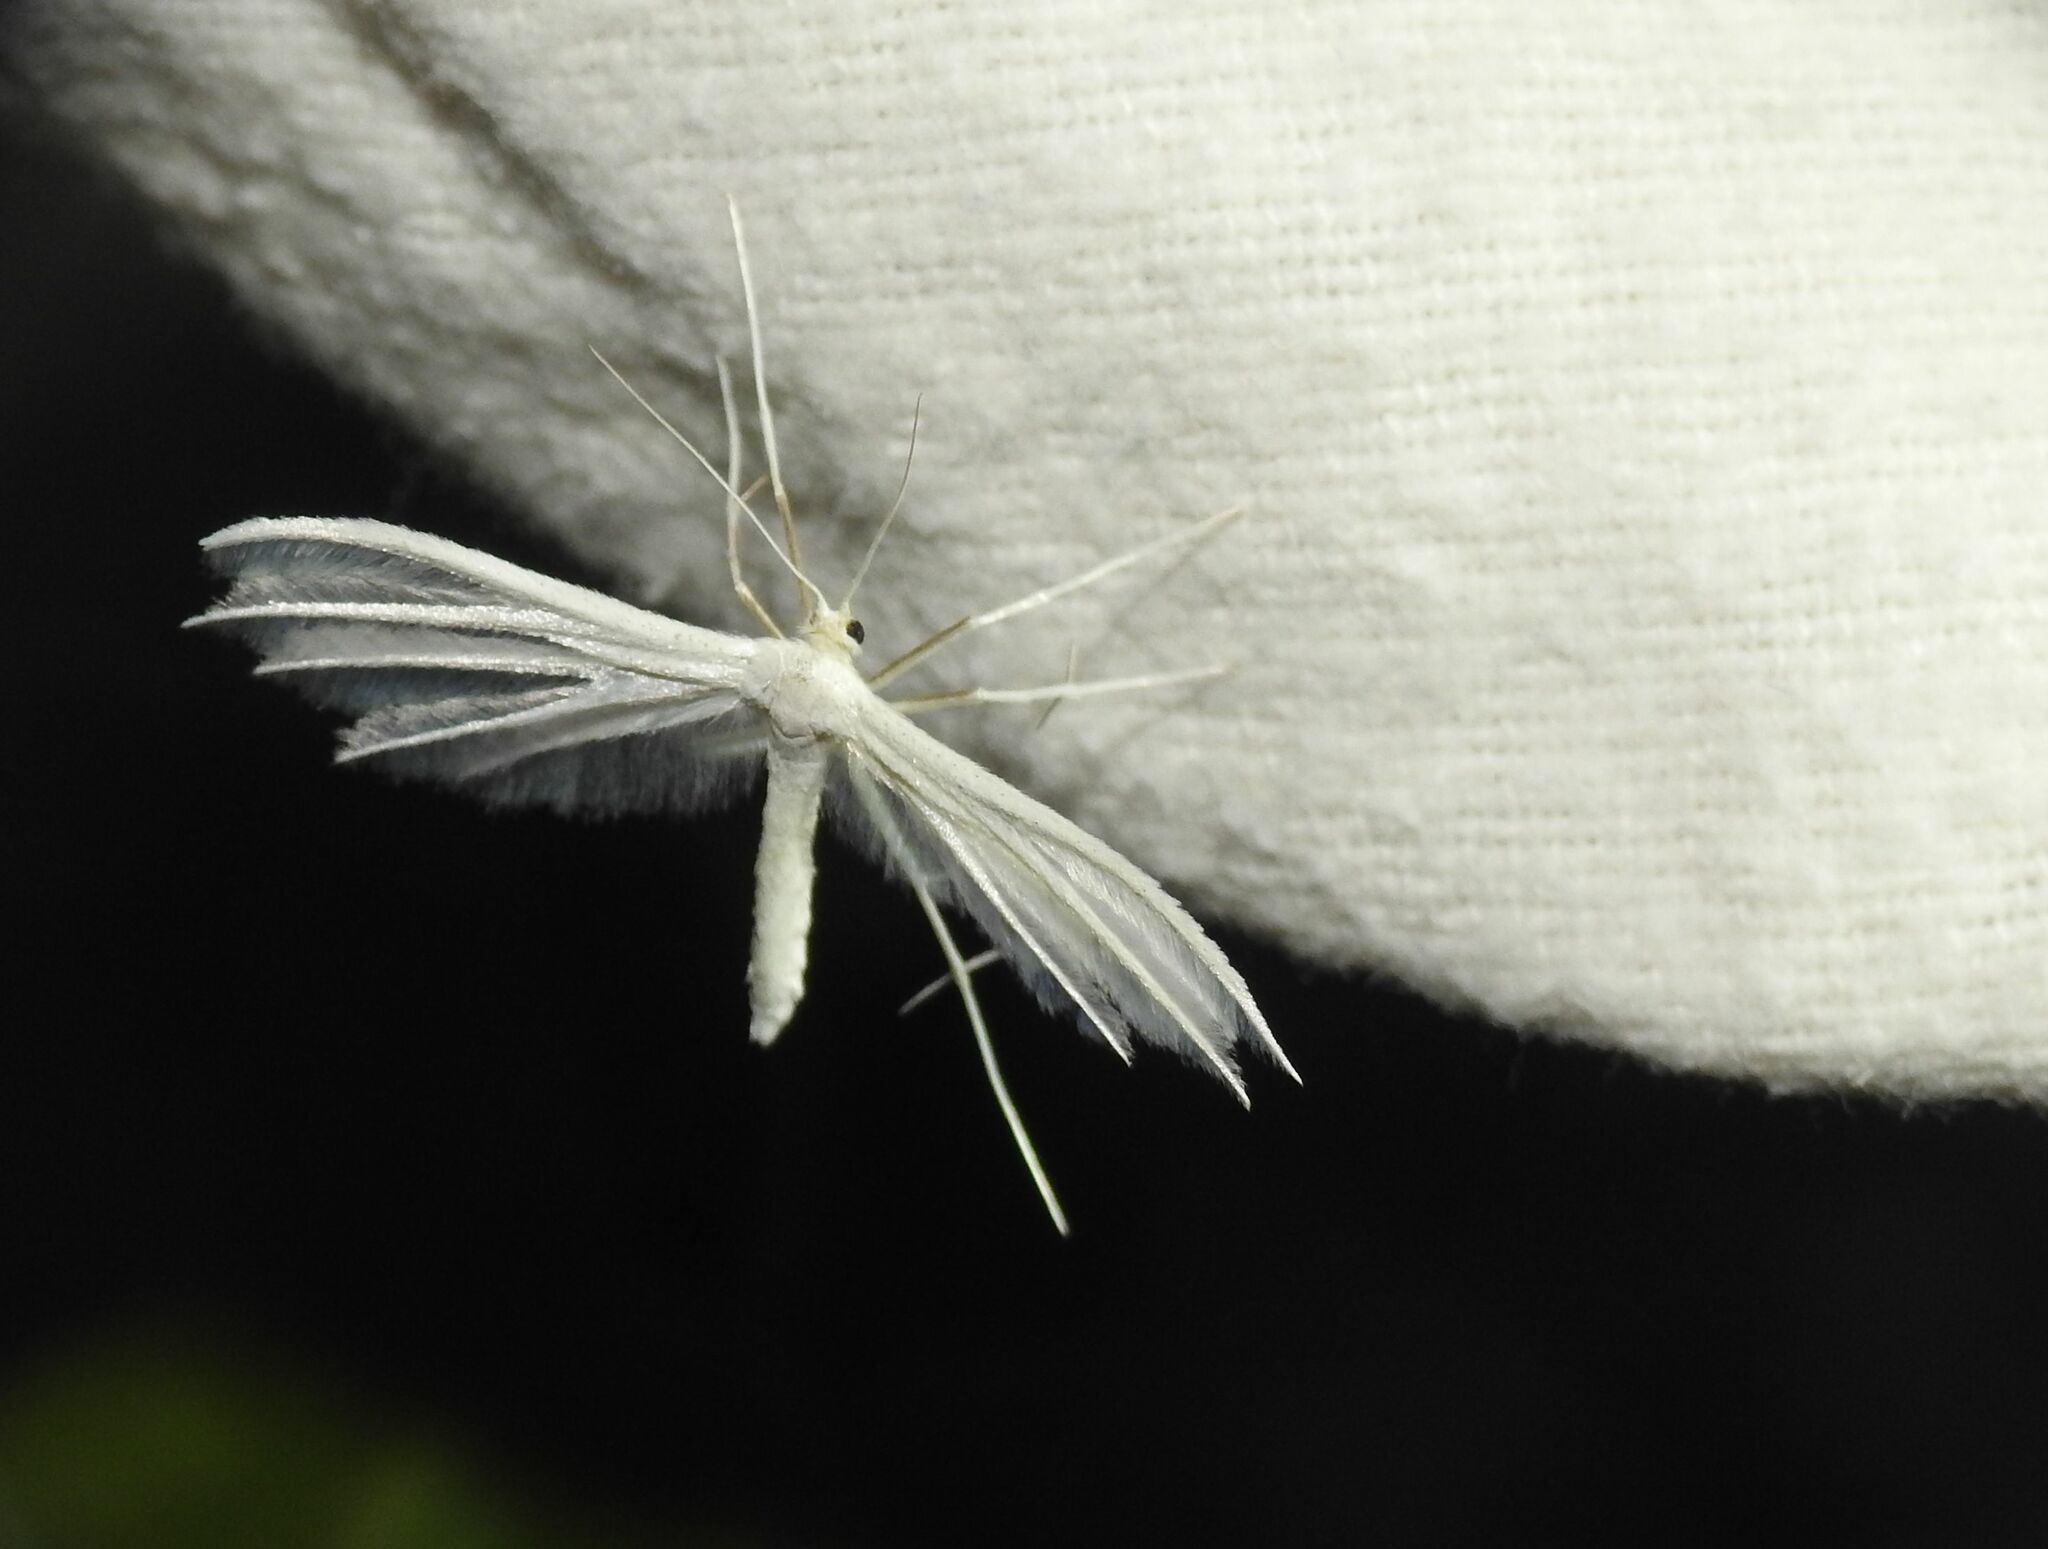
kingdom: Animalia
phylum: Arthropoda
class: Insecta
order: Lepidoptera
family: Pterophoridae
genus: Pterophorus
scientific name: Pterophorus pentadactyla
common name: White plume moth
